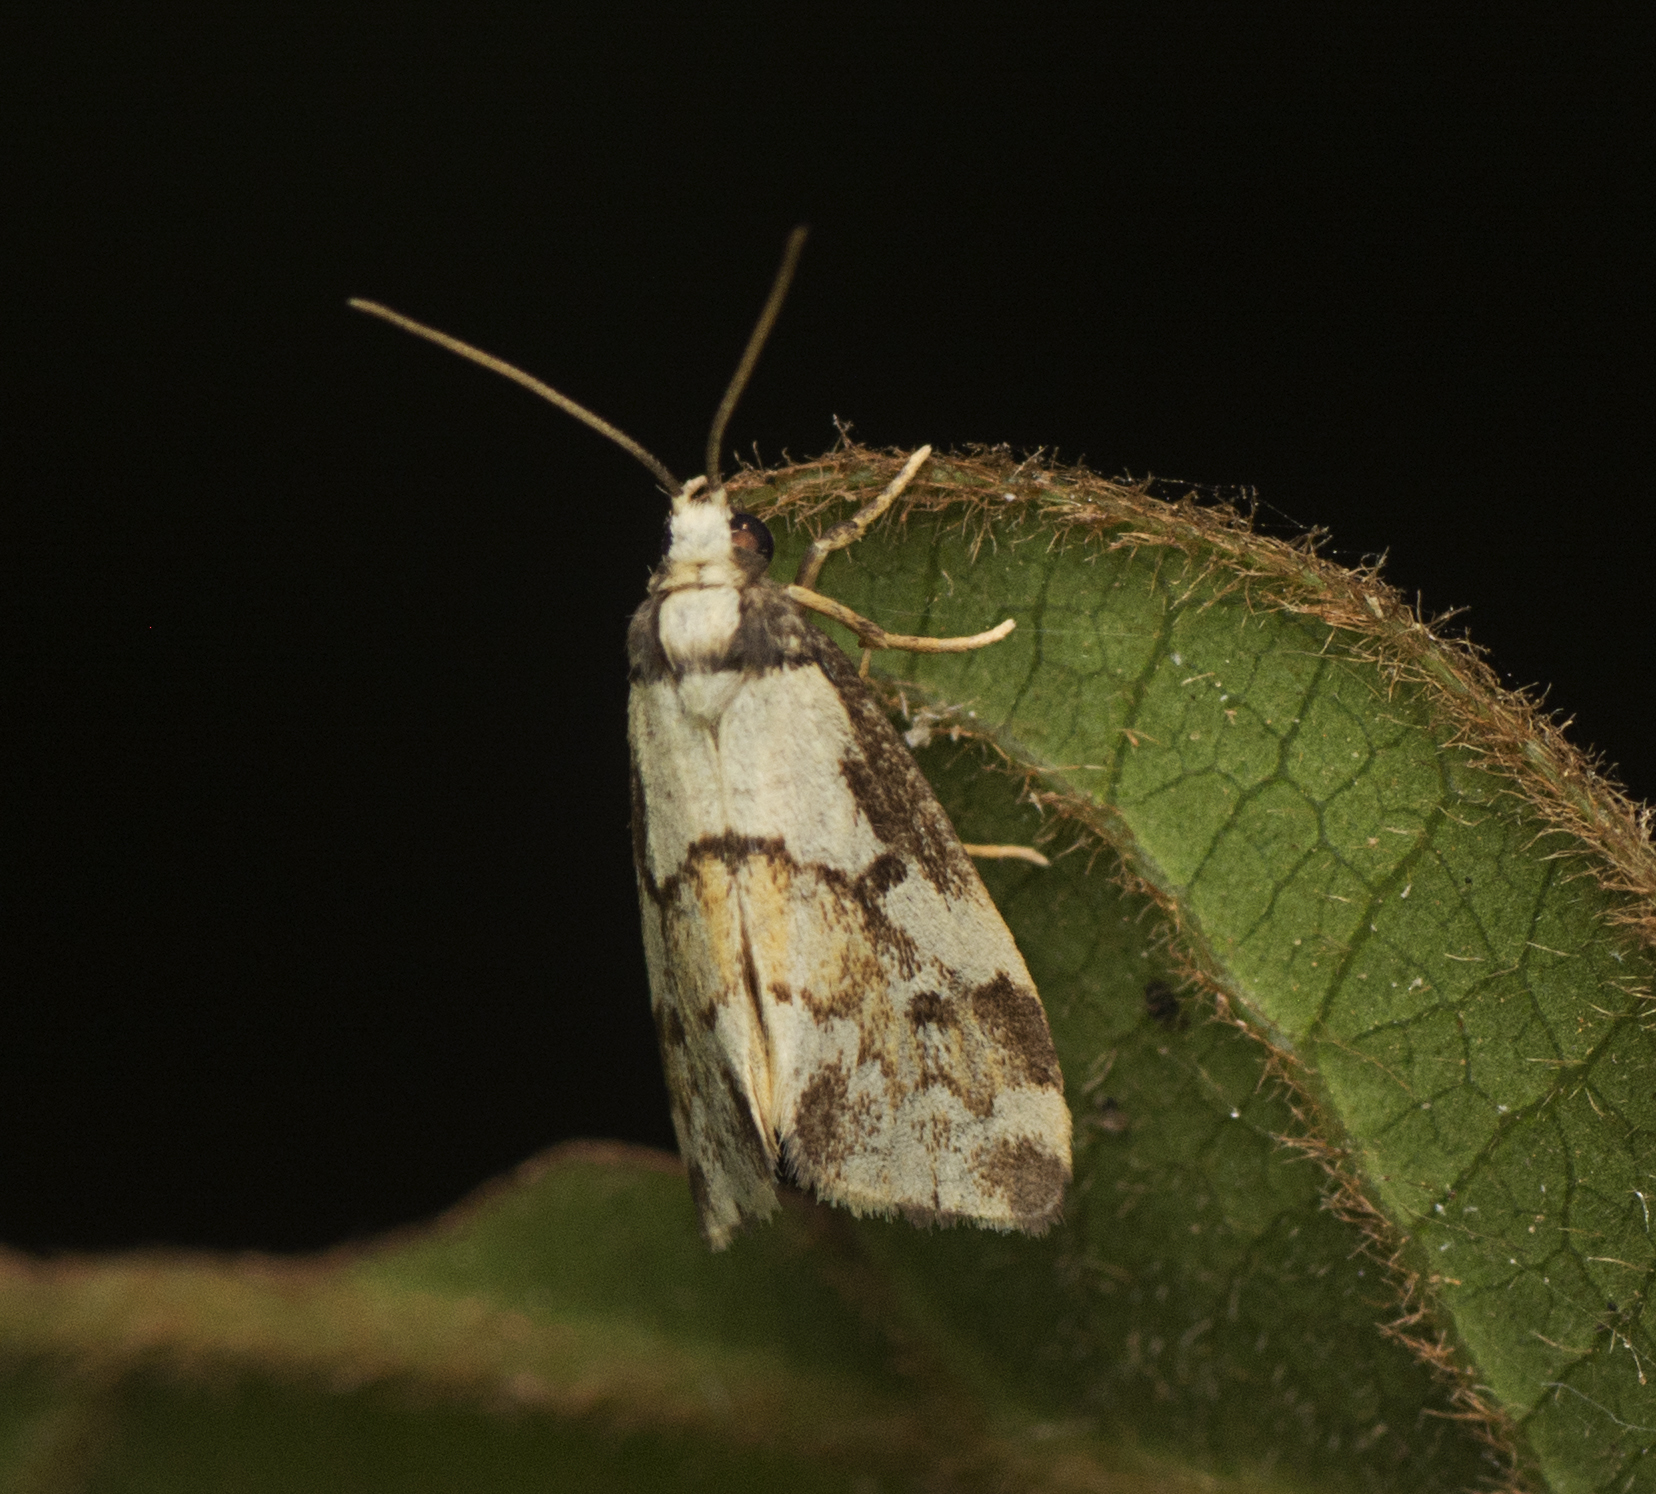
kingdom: Animalia
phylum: Arthropoda
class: Insecta
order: Lepidoptera
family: Erebidae
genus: Philenora
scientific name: Philenora chionastis
